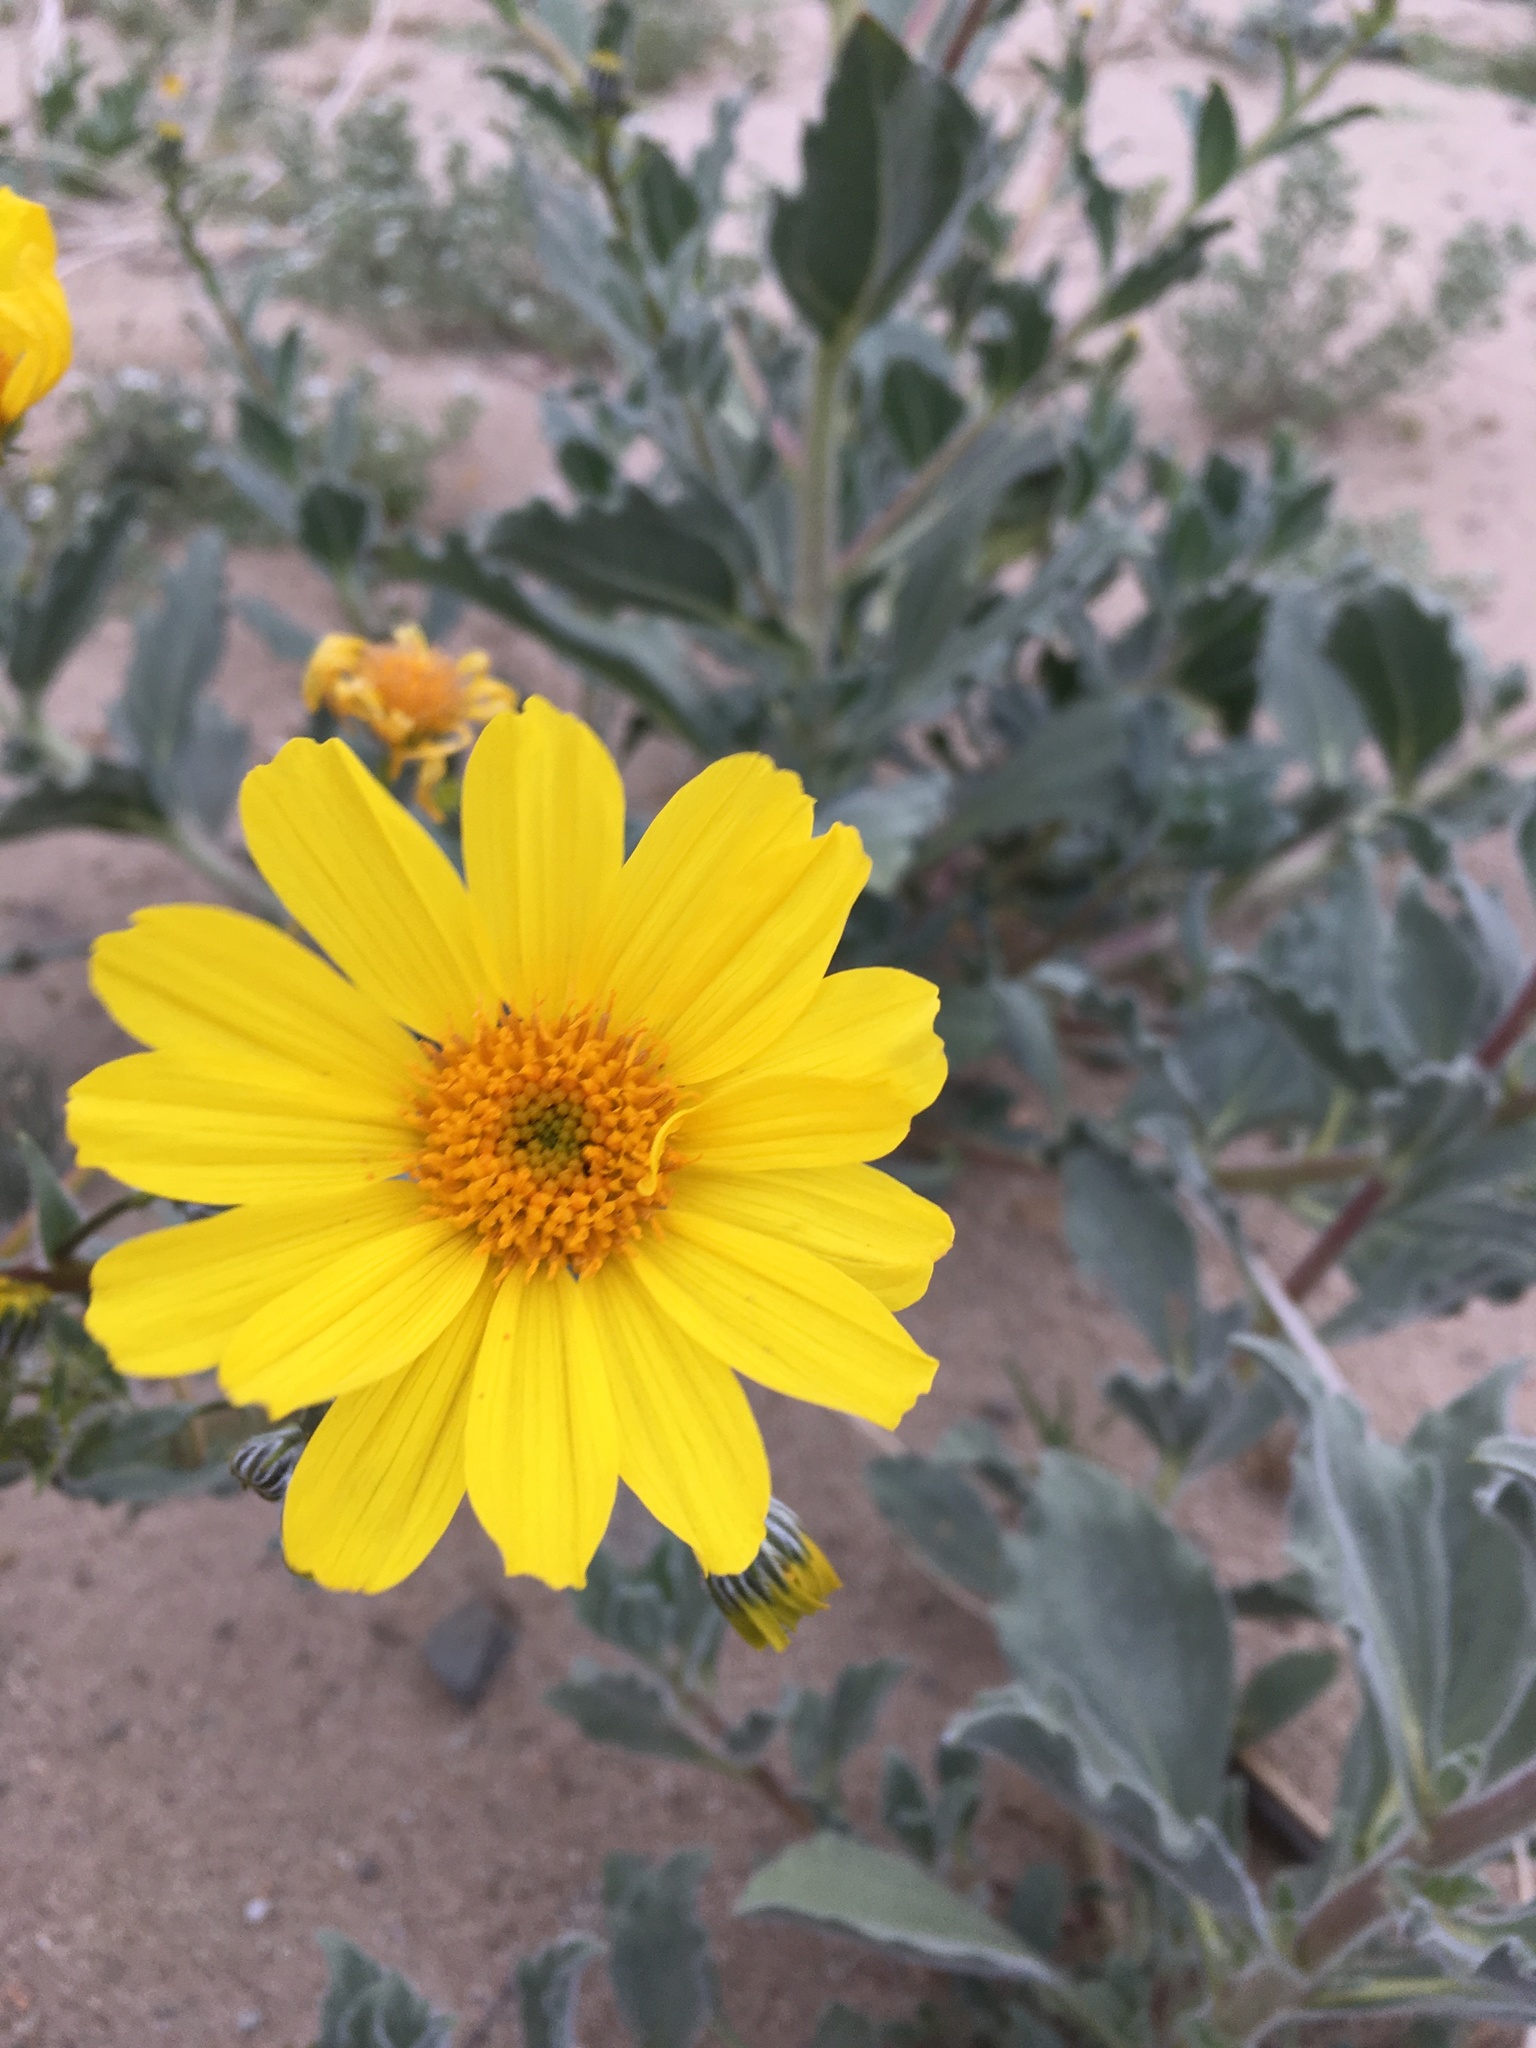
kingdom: Plantae
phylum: Tracheophyta
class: Magnoliopsida
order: Asterales
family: Asteraceae
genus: Geraea
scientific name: Geraea canescens
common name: Desert-gold
